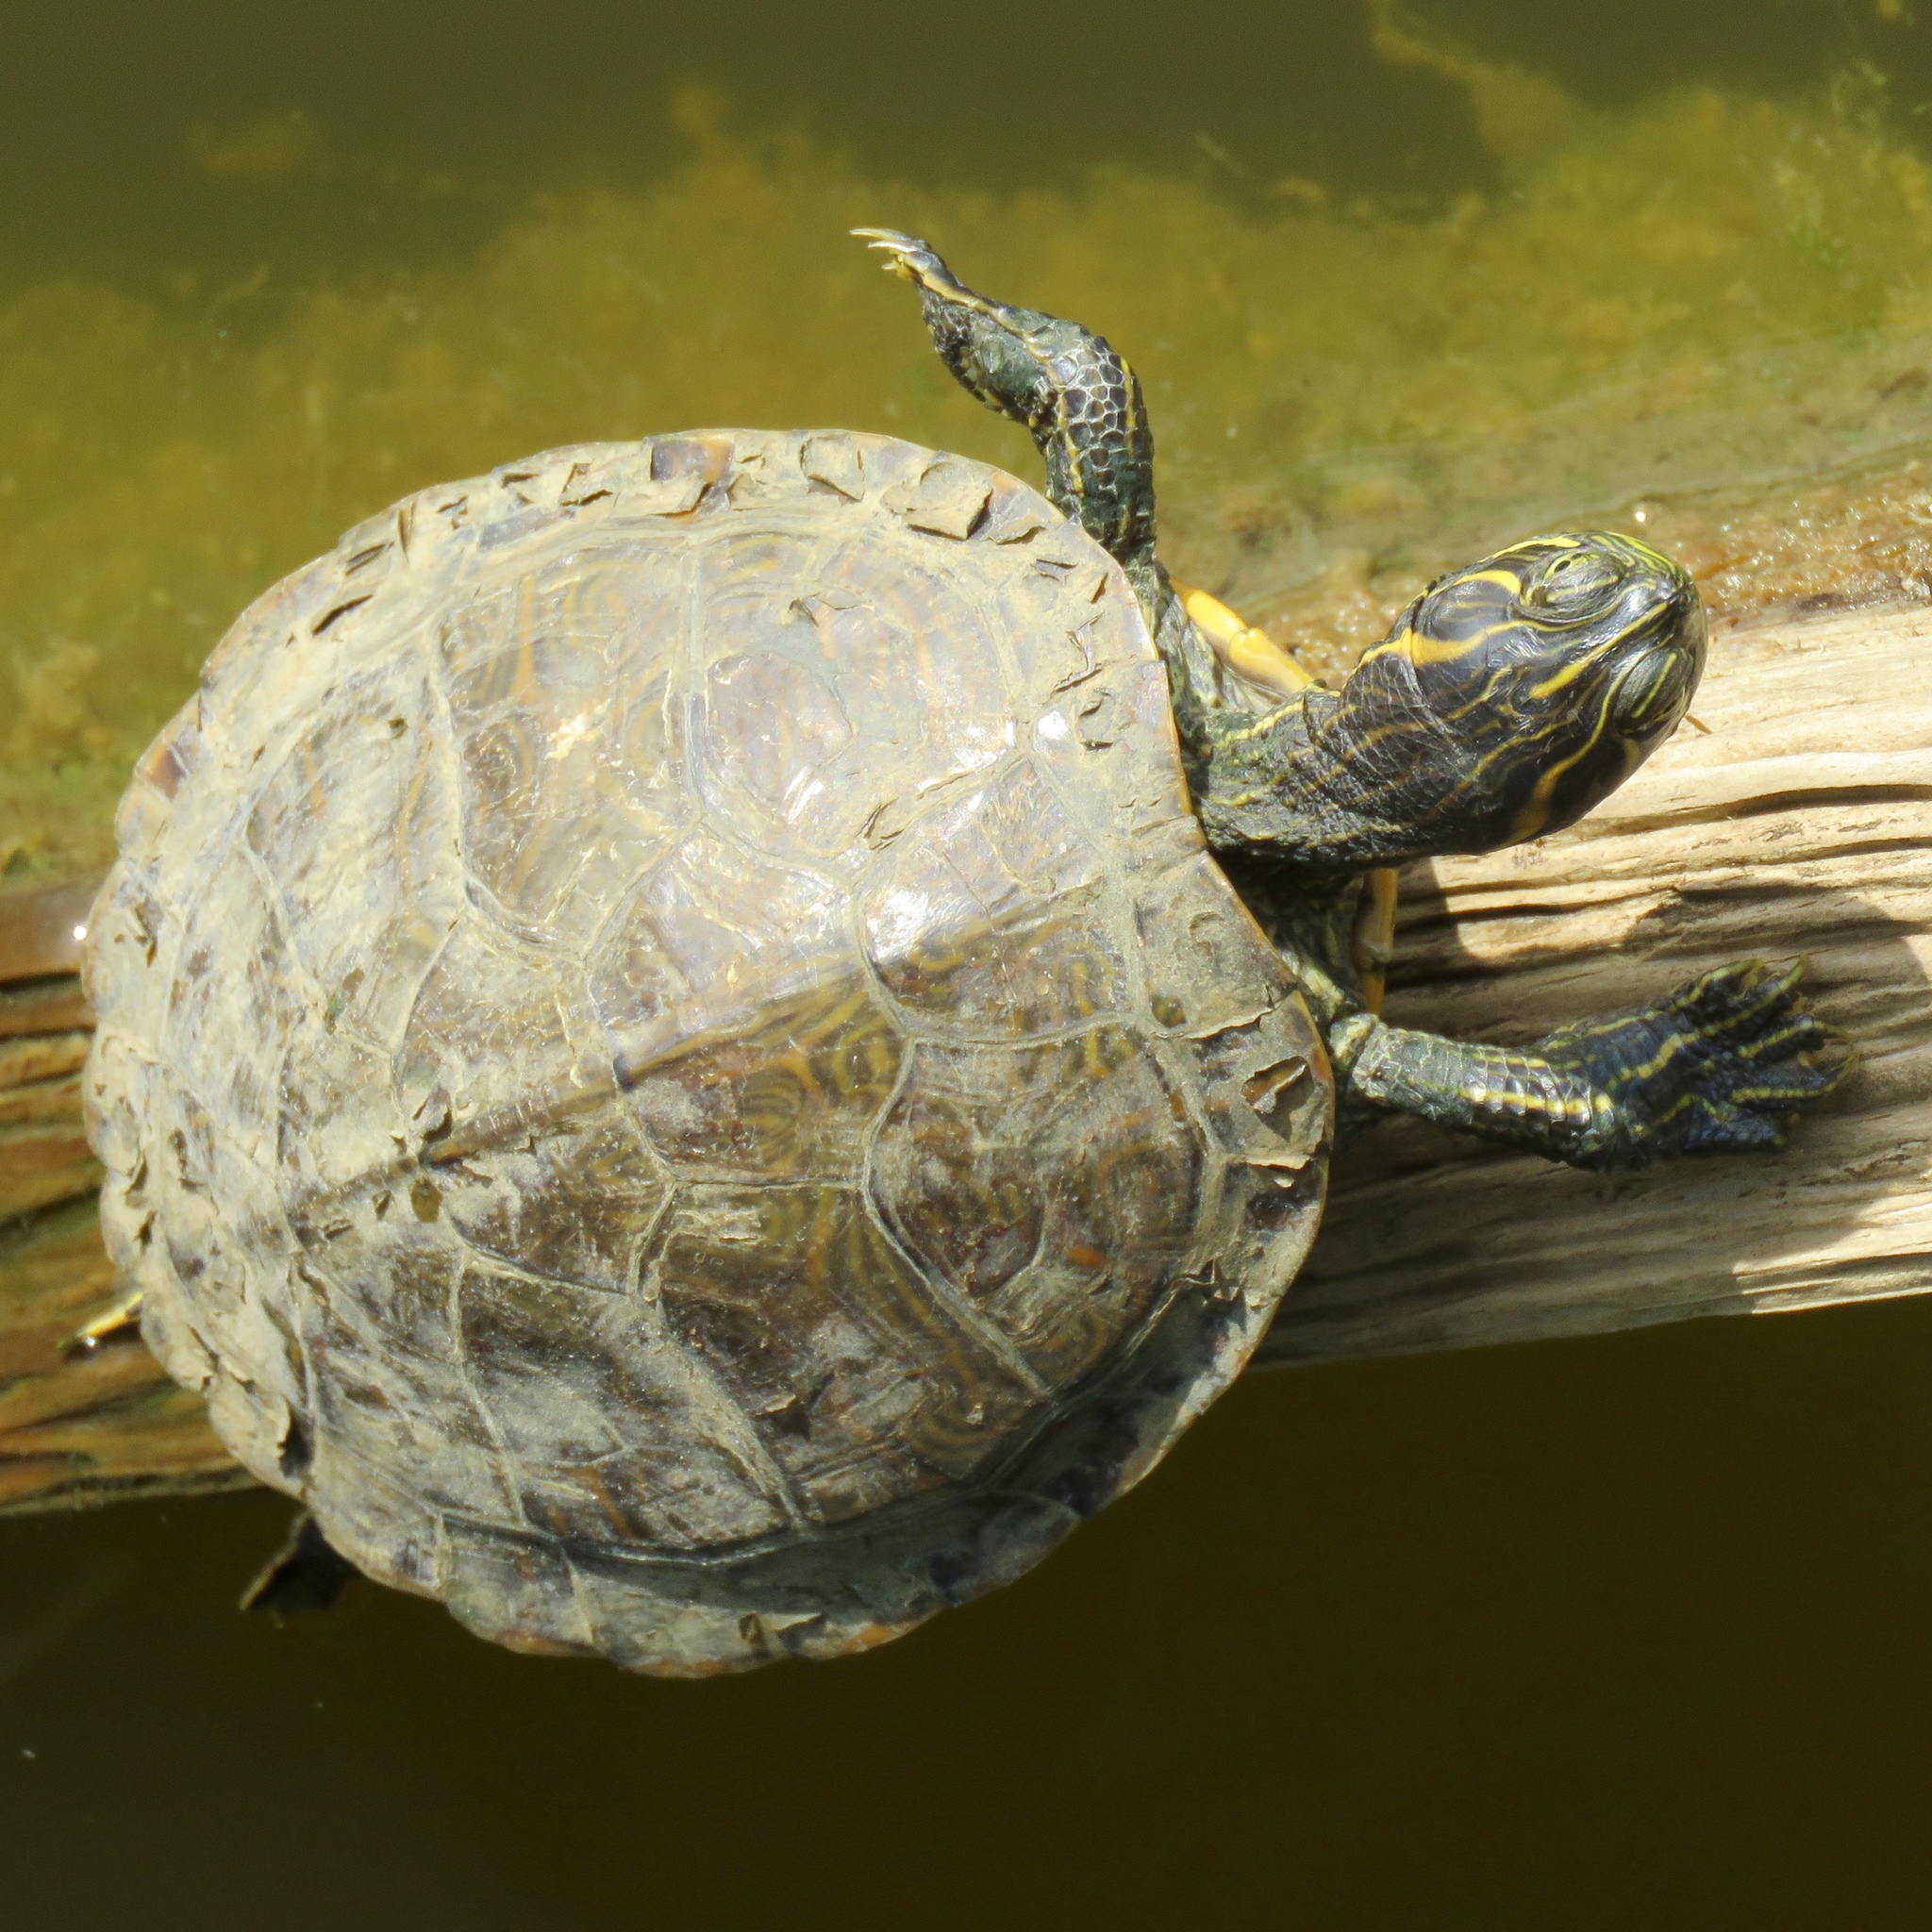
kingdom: Animalia
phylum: Chordata
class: Testudines
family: Emydidae
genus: Pseudemys
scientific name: Pseudemys concinna
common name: Eastern river cooter
